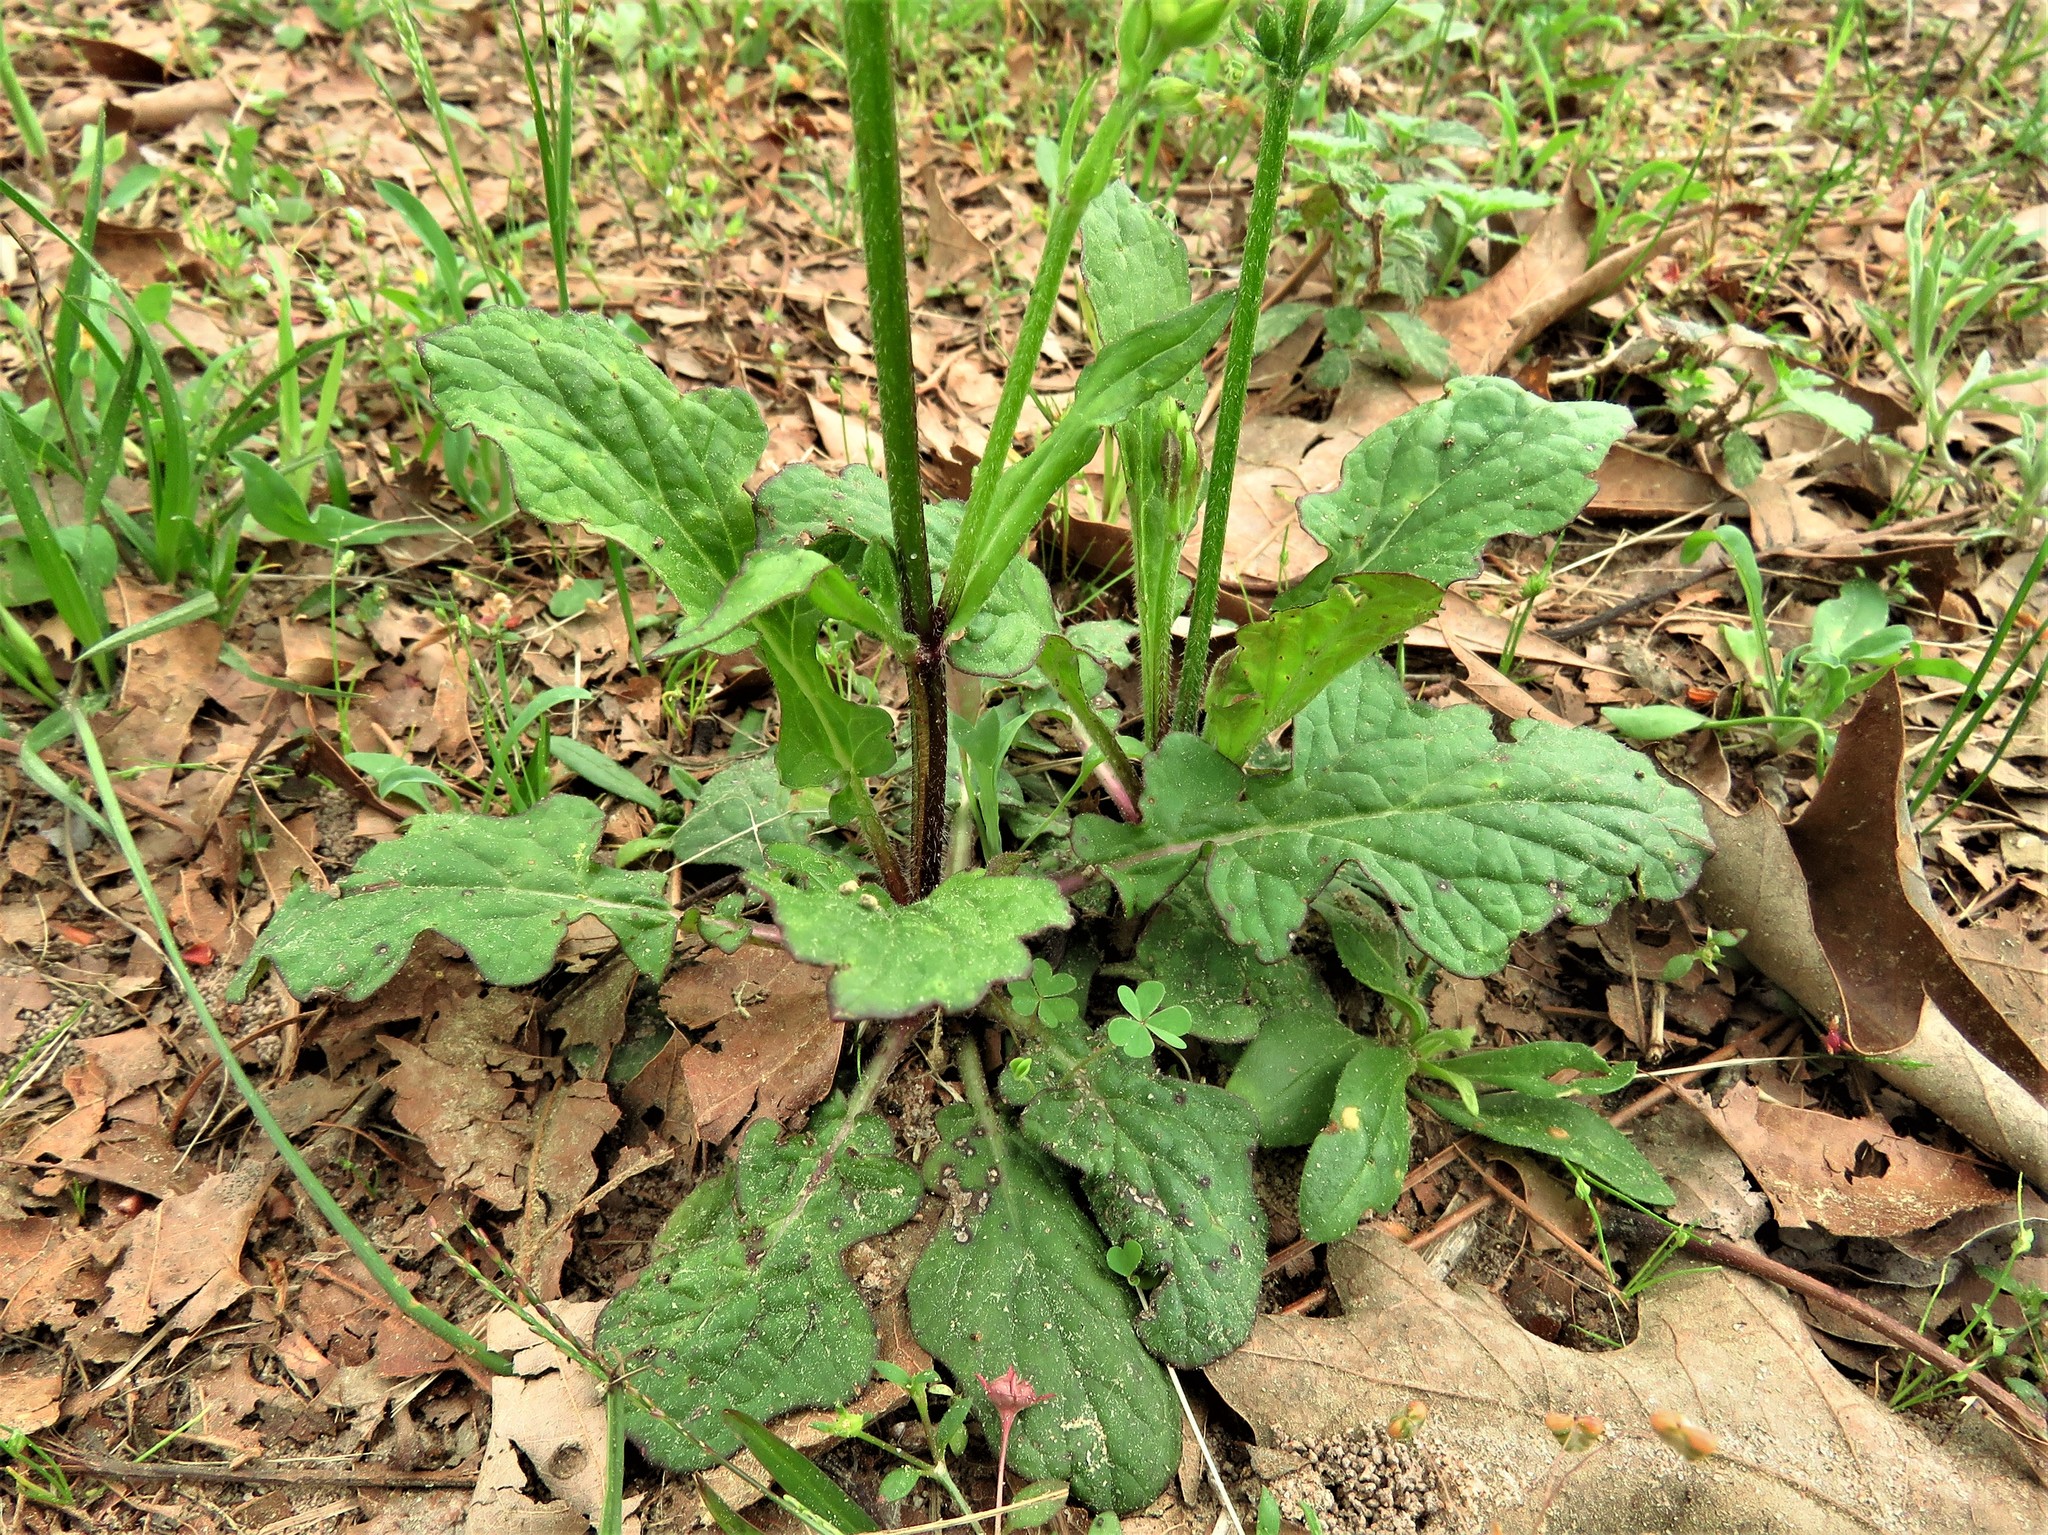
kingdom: Plantae
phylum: Tracheophyta
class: Magnoliopsida
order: Lamiales
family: Lamiaceae
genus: Salvia
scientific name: Salvia lyrata
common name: Cancerweed
